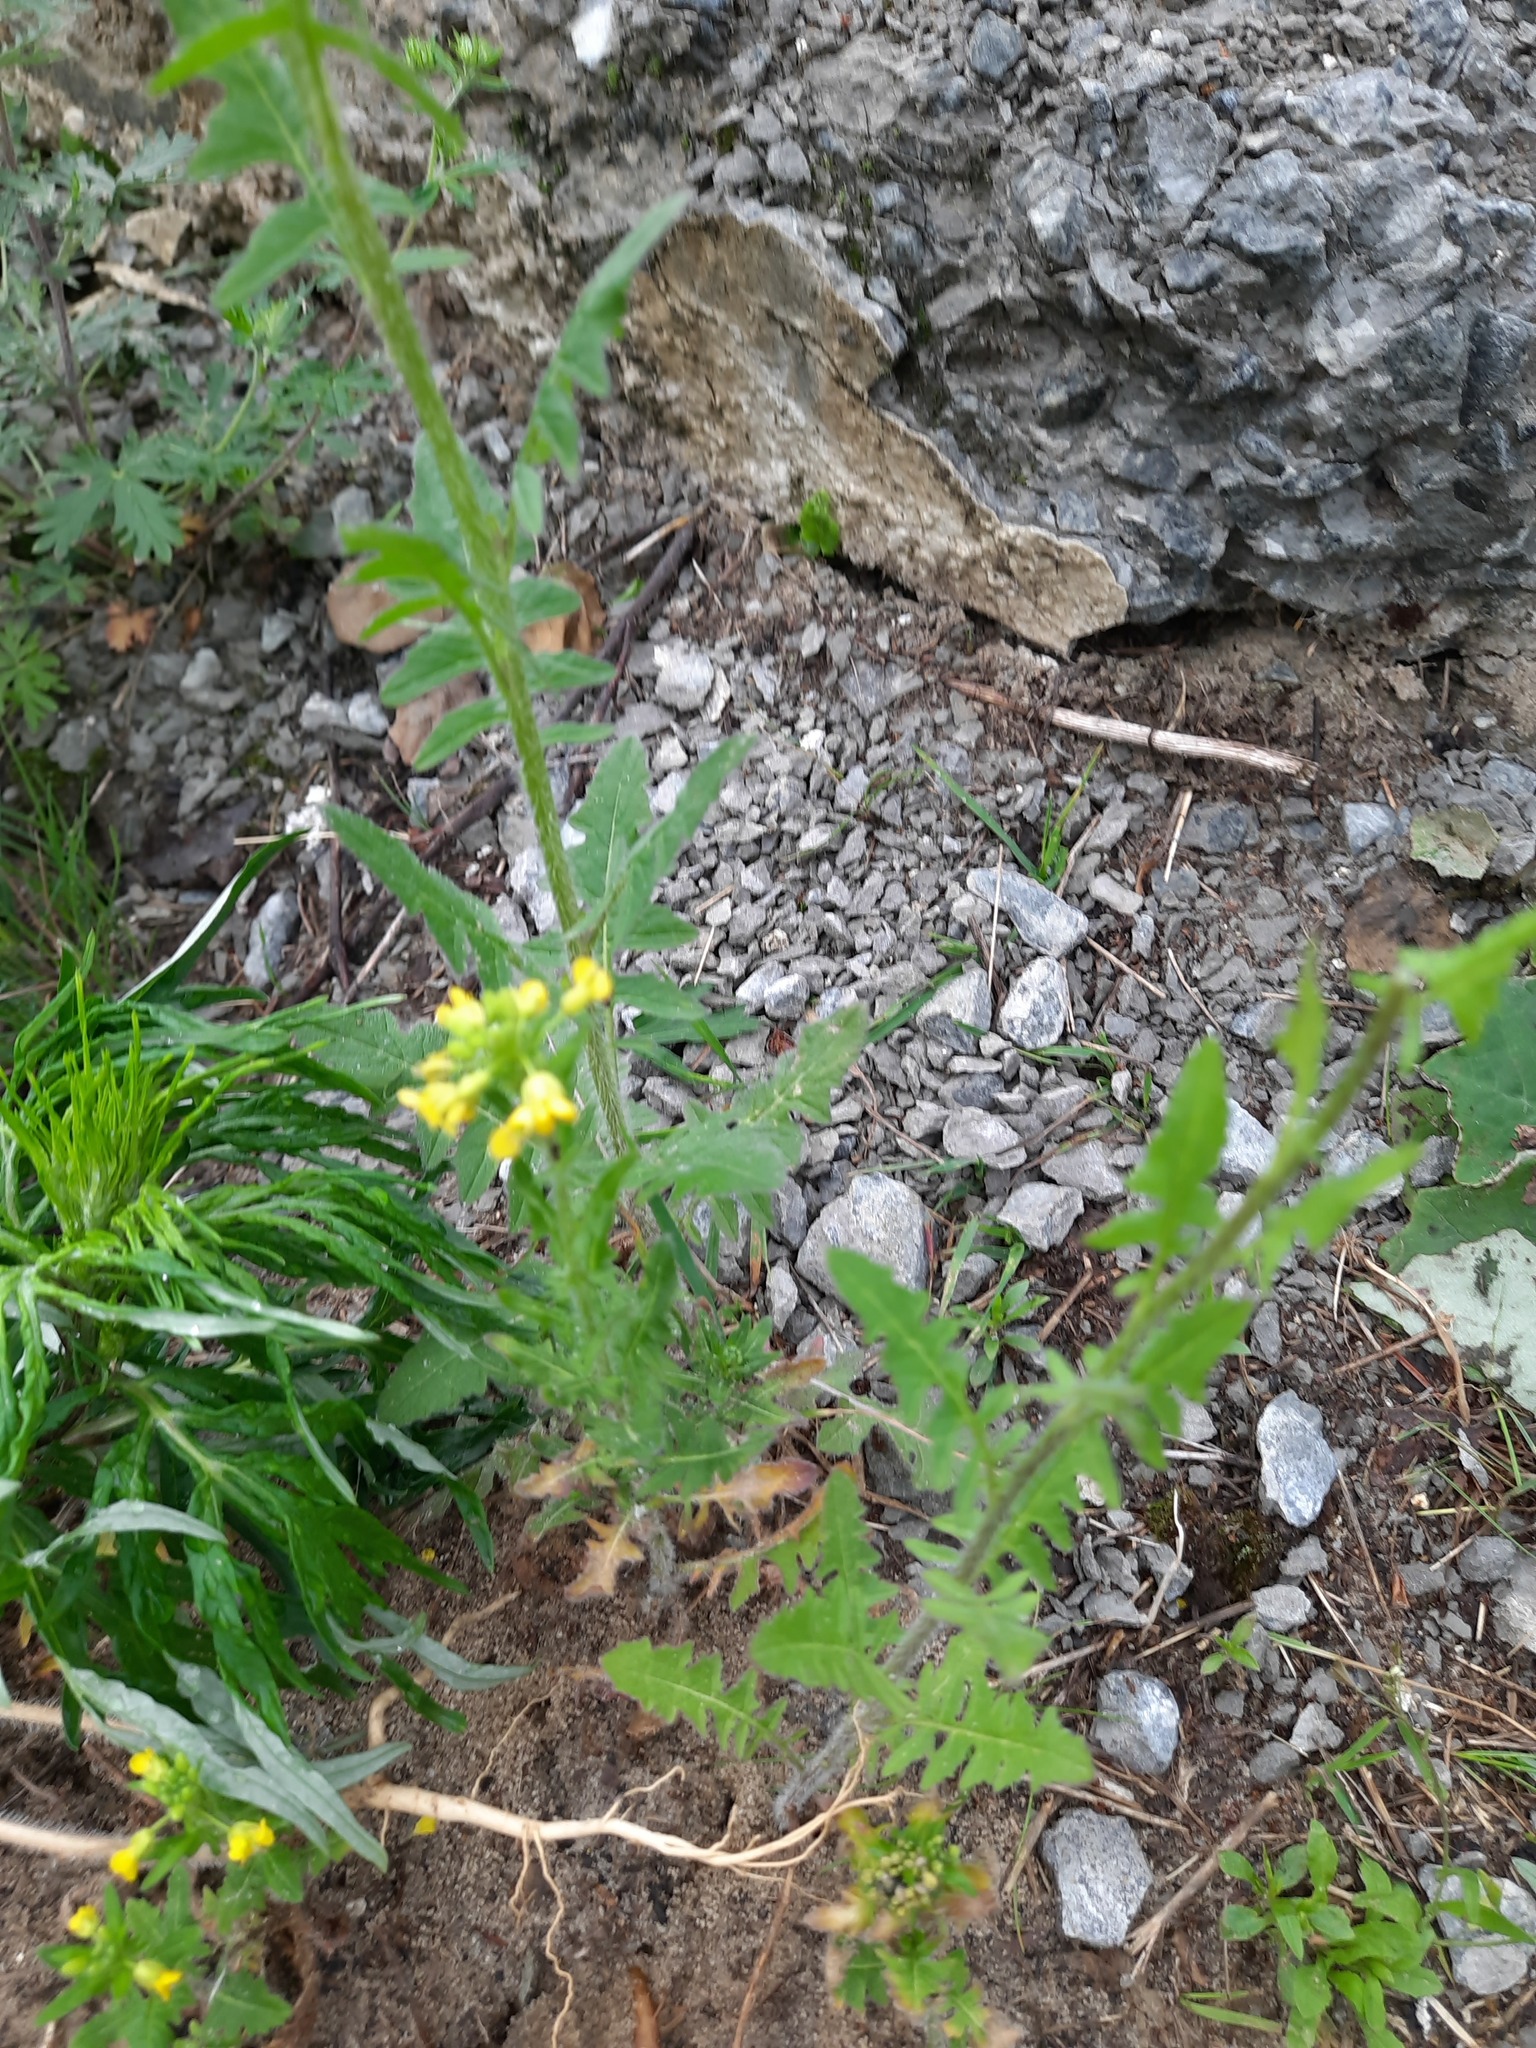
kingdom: Plantae
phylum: Tracheophyta
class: Magnoliopsida
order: Brassicales
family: Brassicaceae
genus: Sisymbrium
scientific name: Sisymbrium loeselii
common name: False london-rocket
